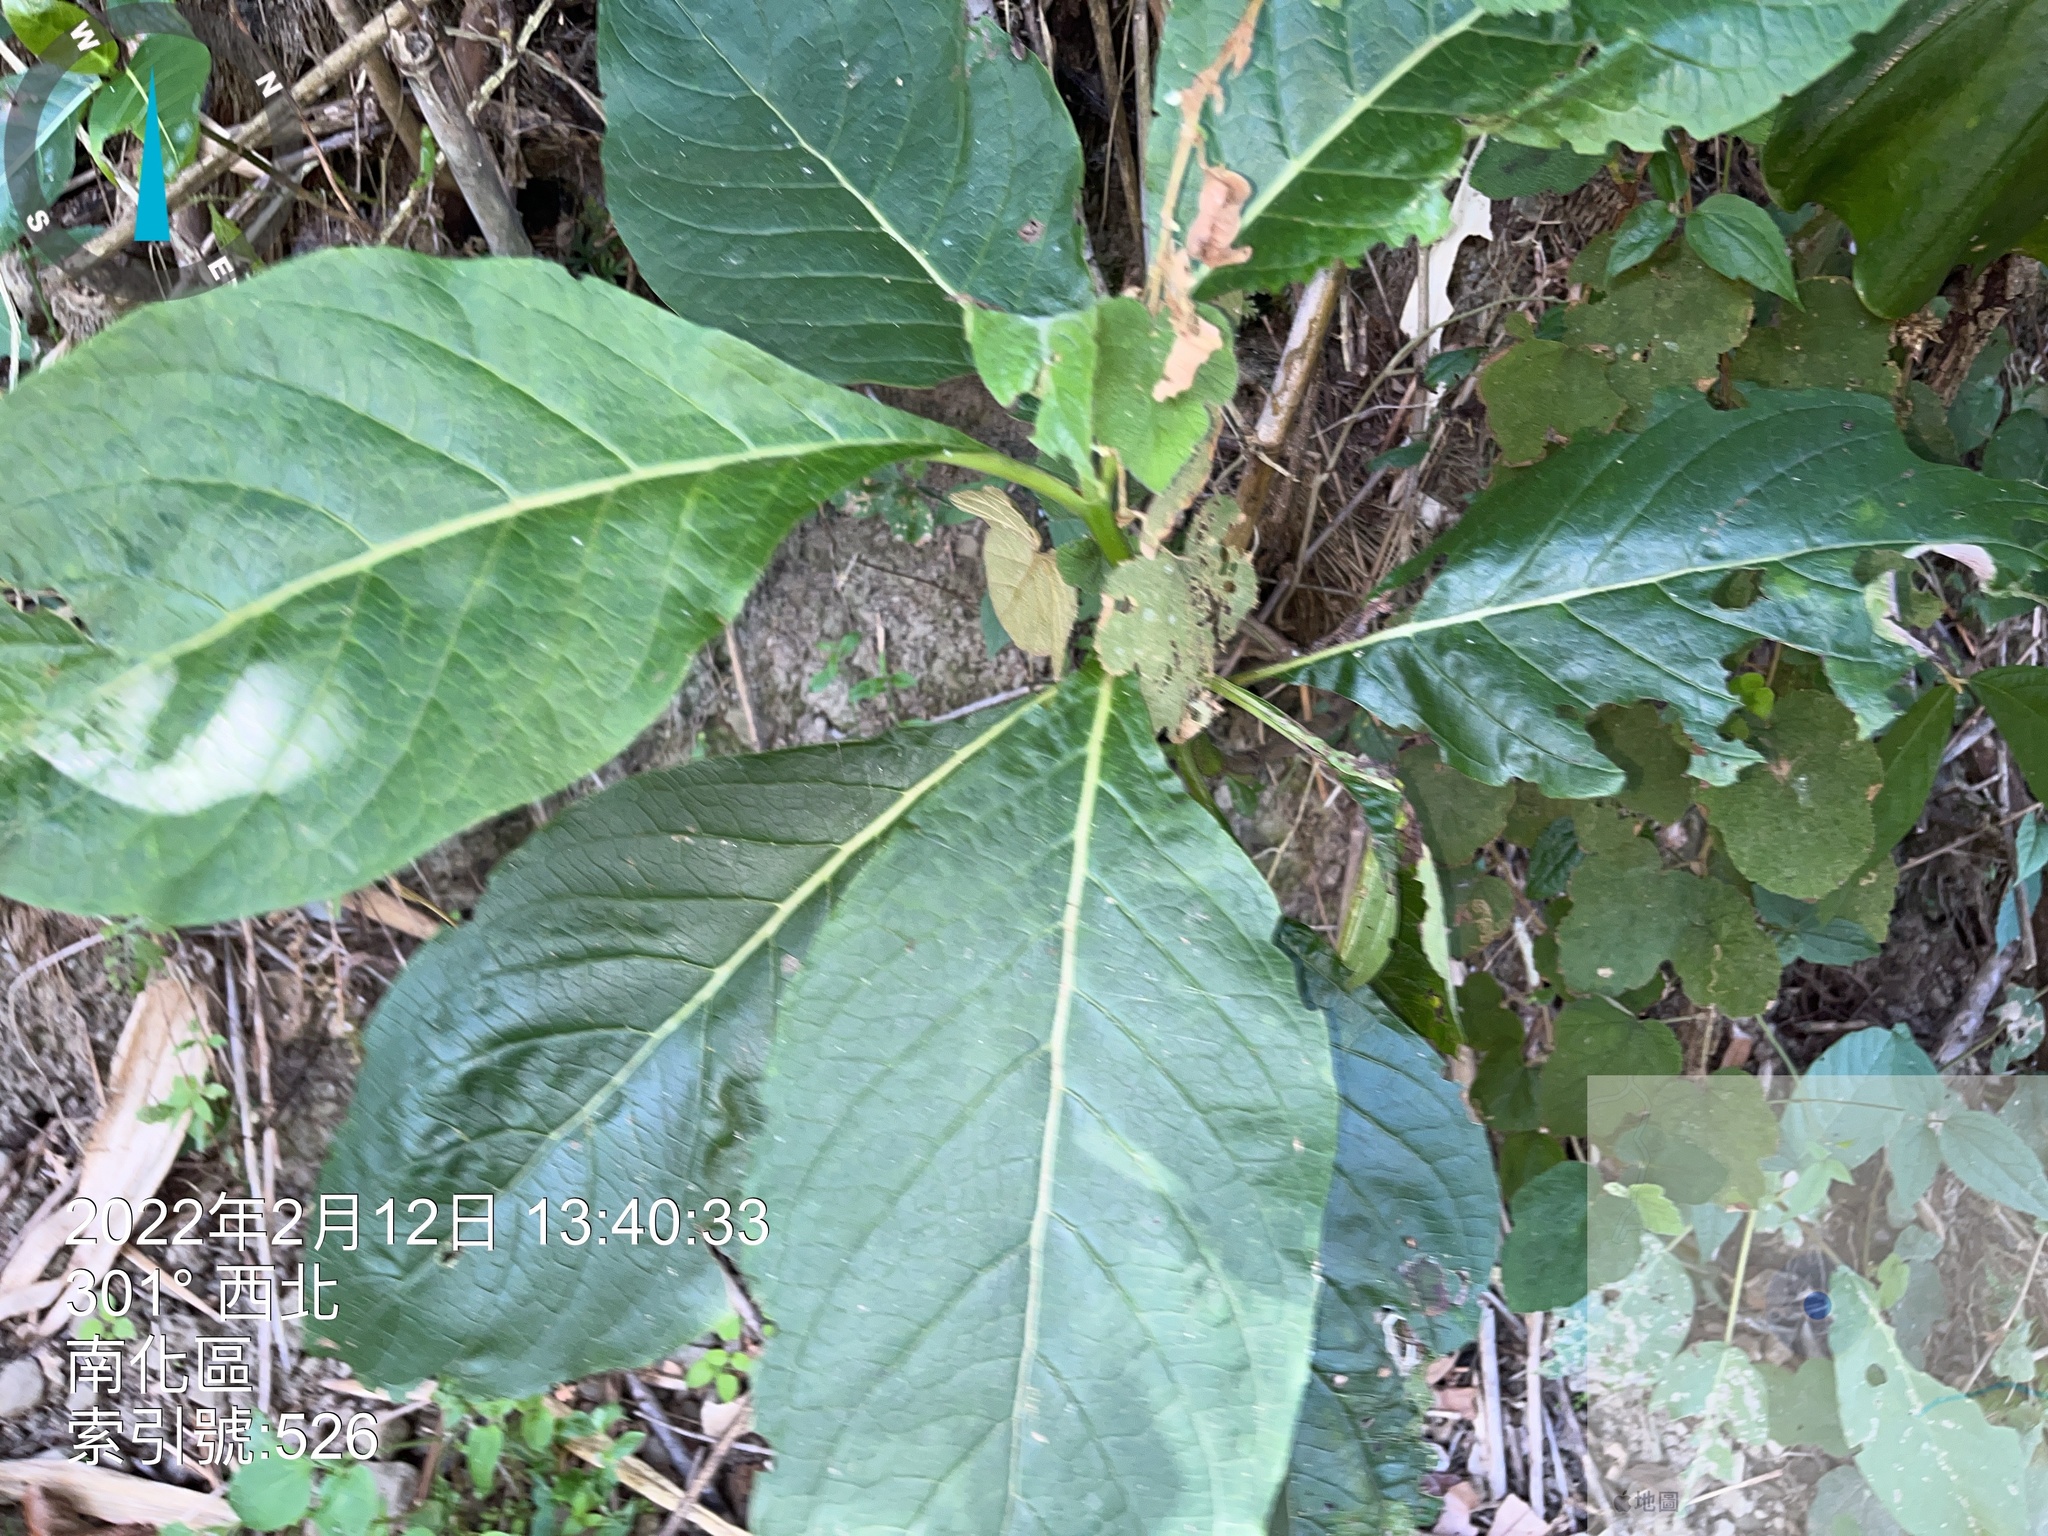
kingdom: Plantae
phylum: Tracheophyta
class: Magnoliopsida
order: Boraginales
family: Boraginaceae
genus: Trichodesma
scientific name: Trichodesma calycosum
